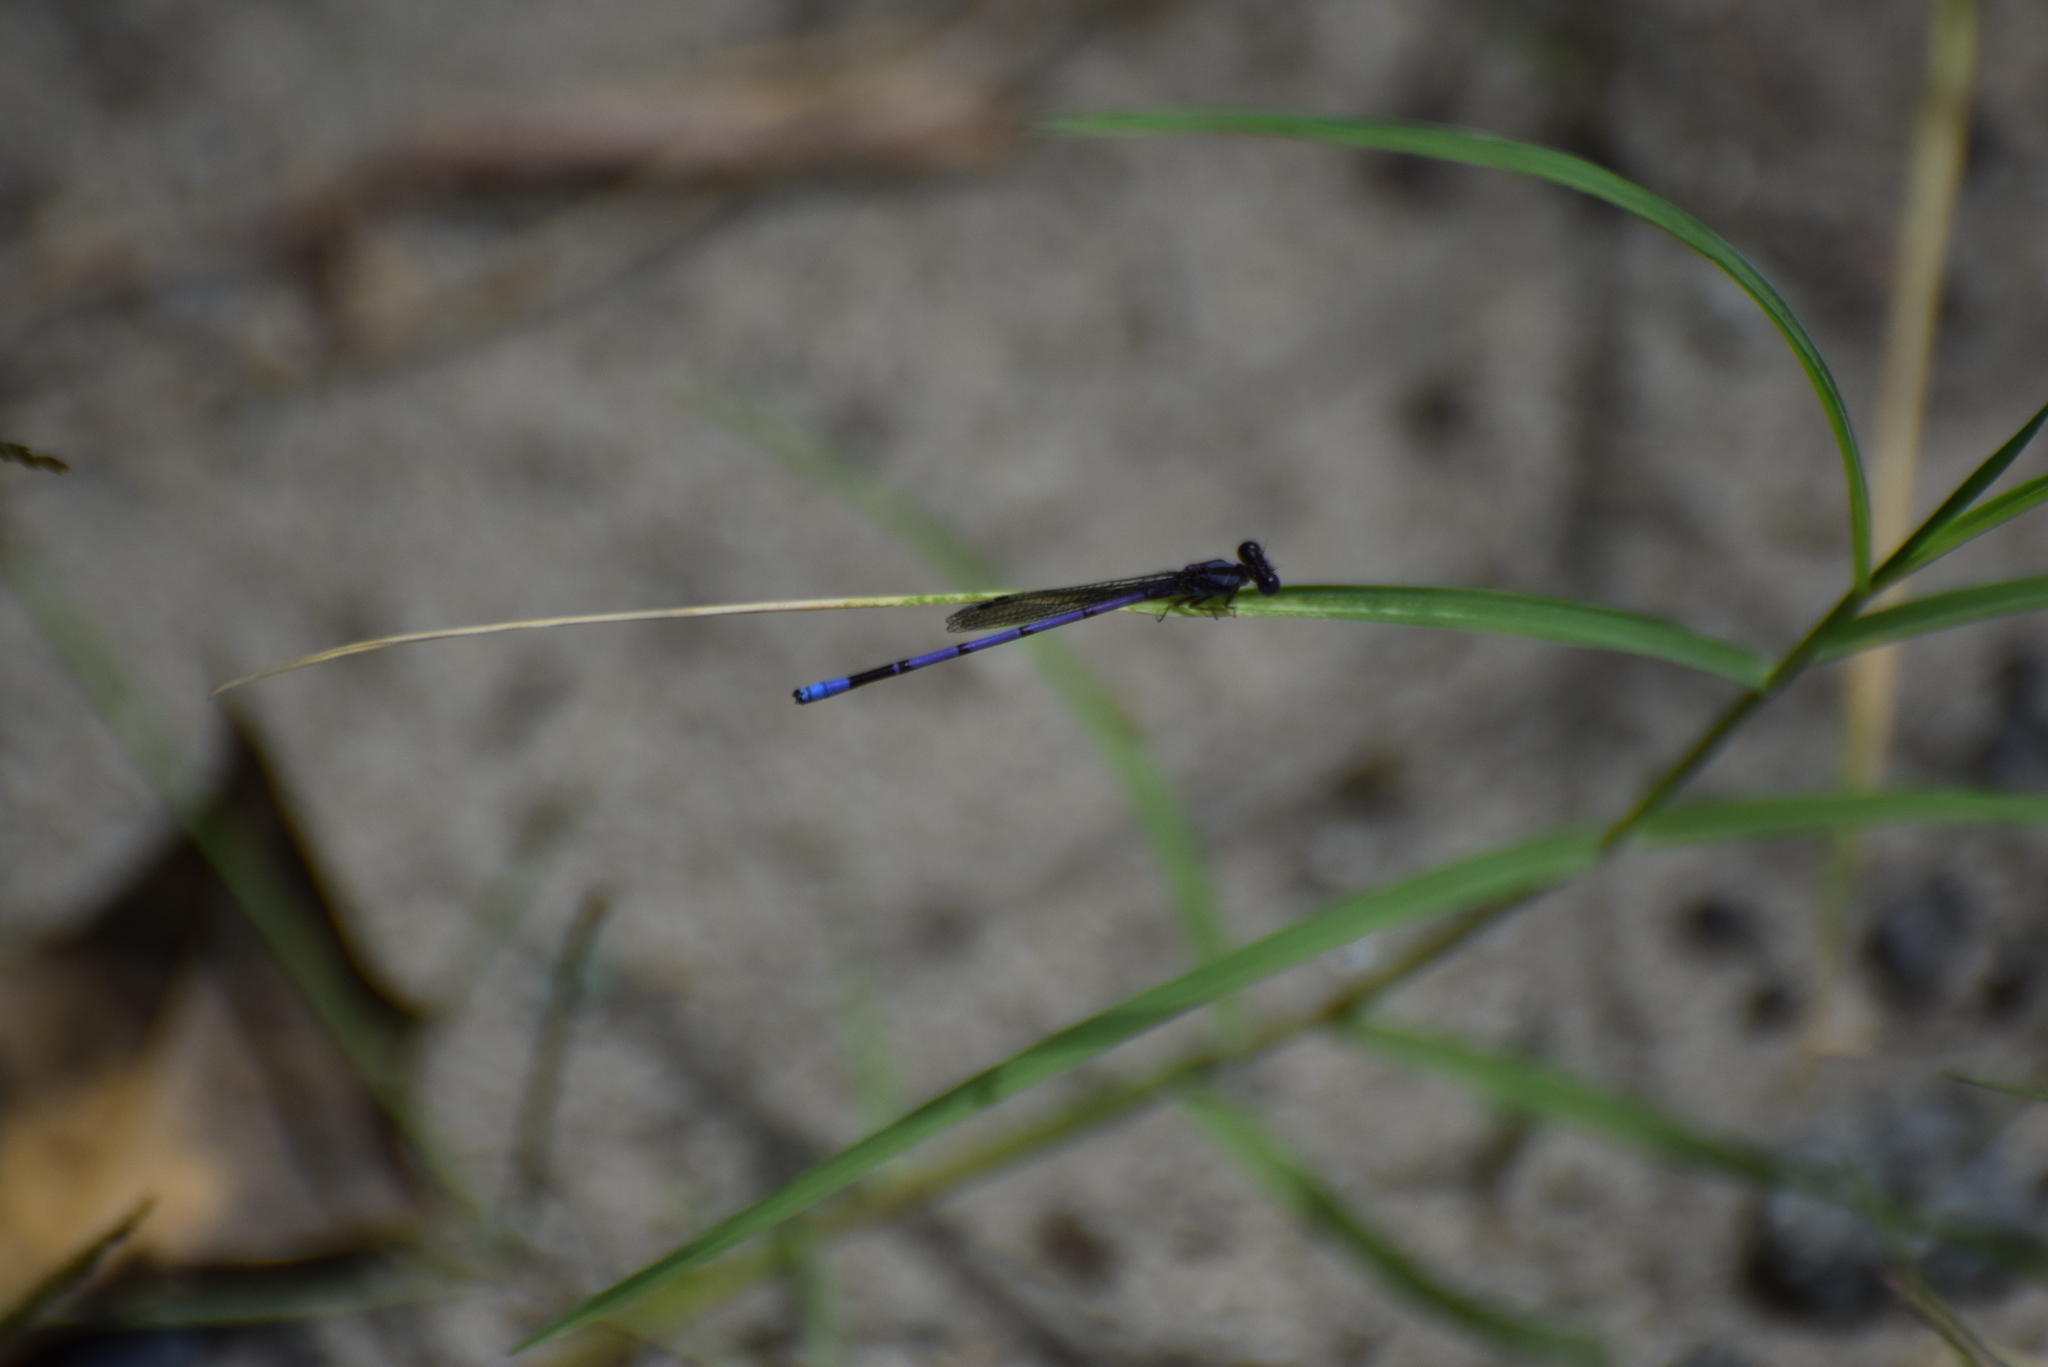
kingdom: Animalia
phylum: Arthropoda
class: Insecta
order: Odonata
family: Coenagrionidae
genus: Argia
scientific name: Argia fumipennis
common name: Variable dancer
